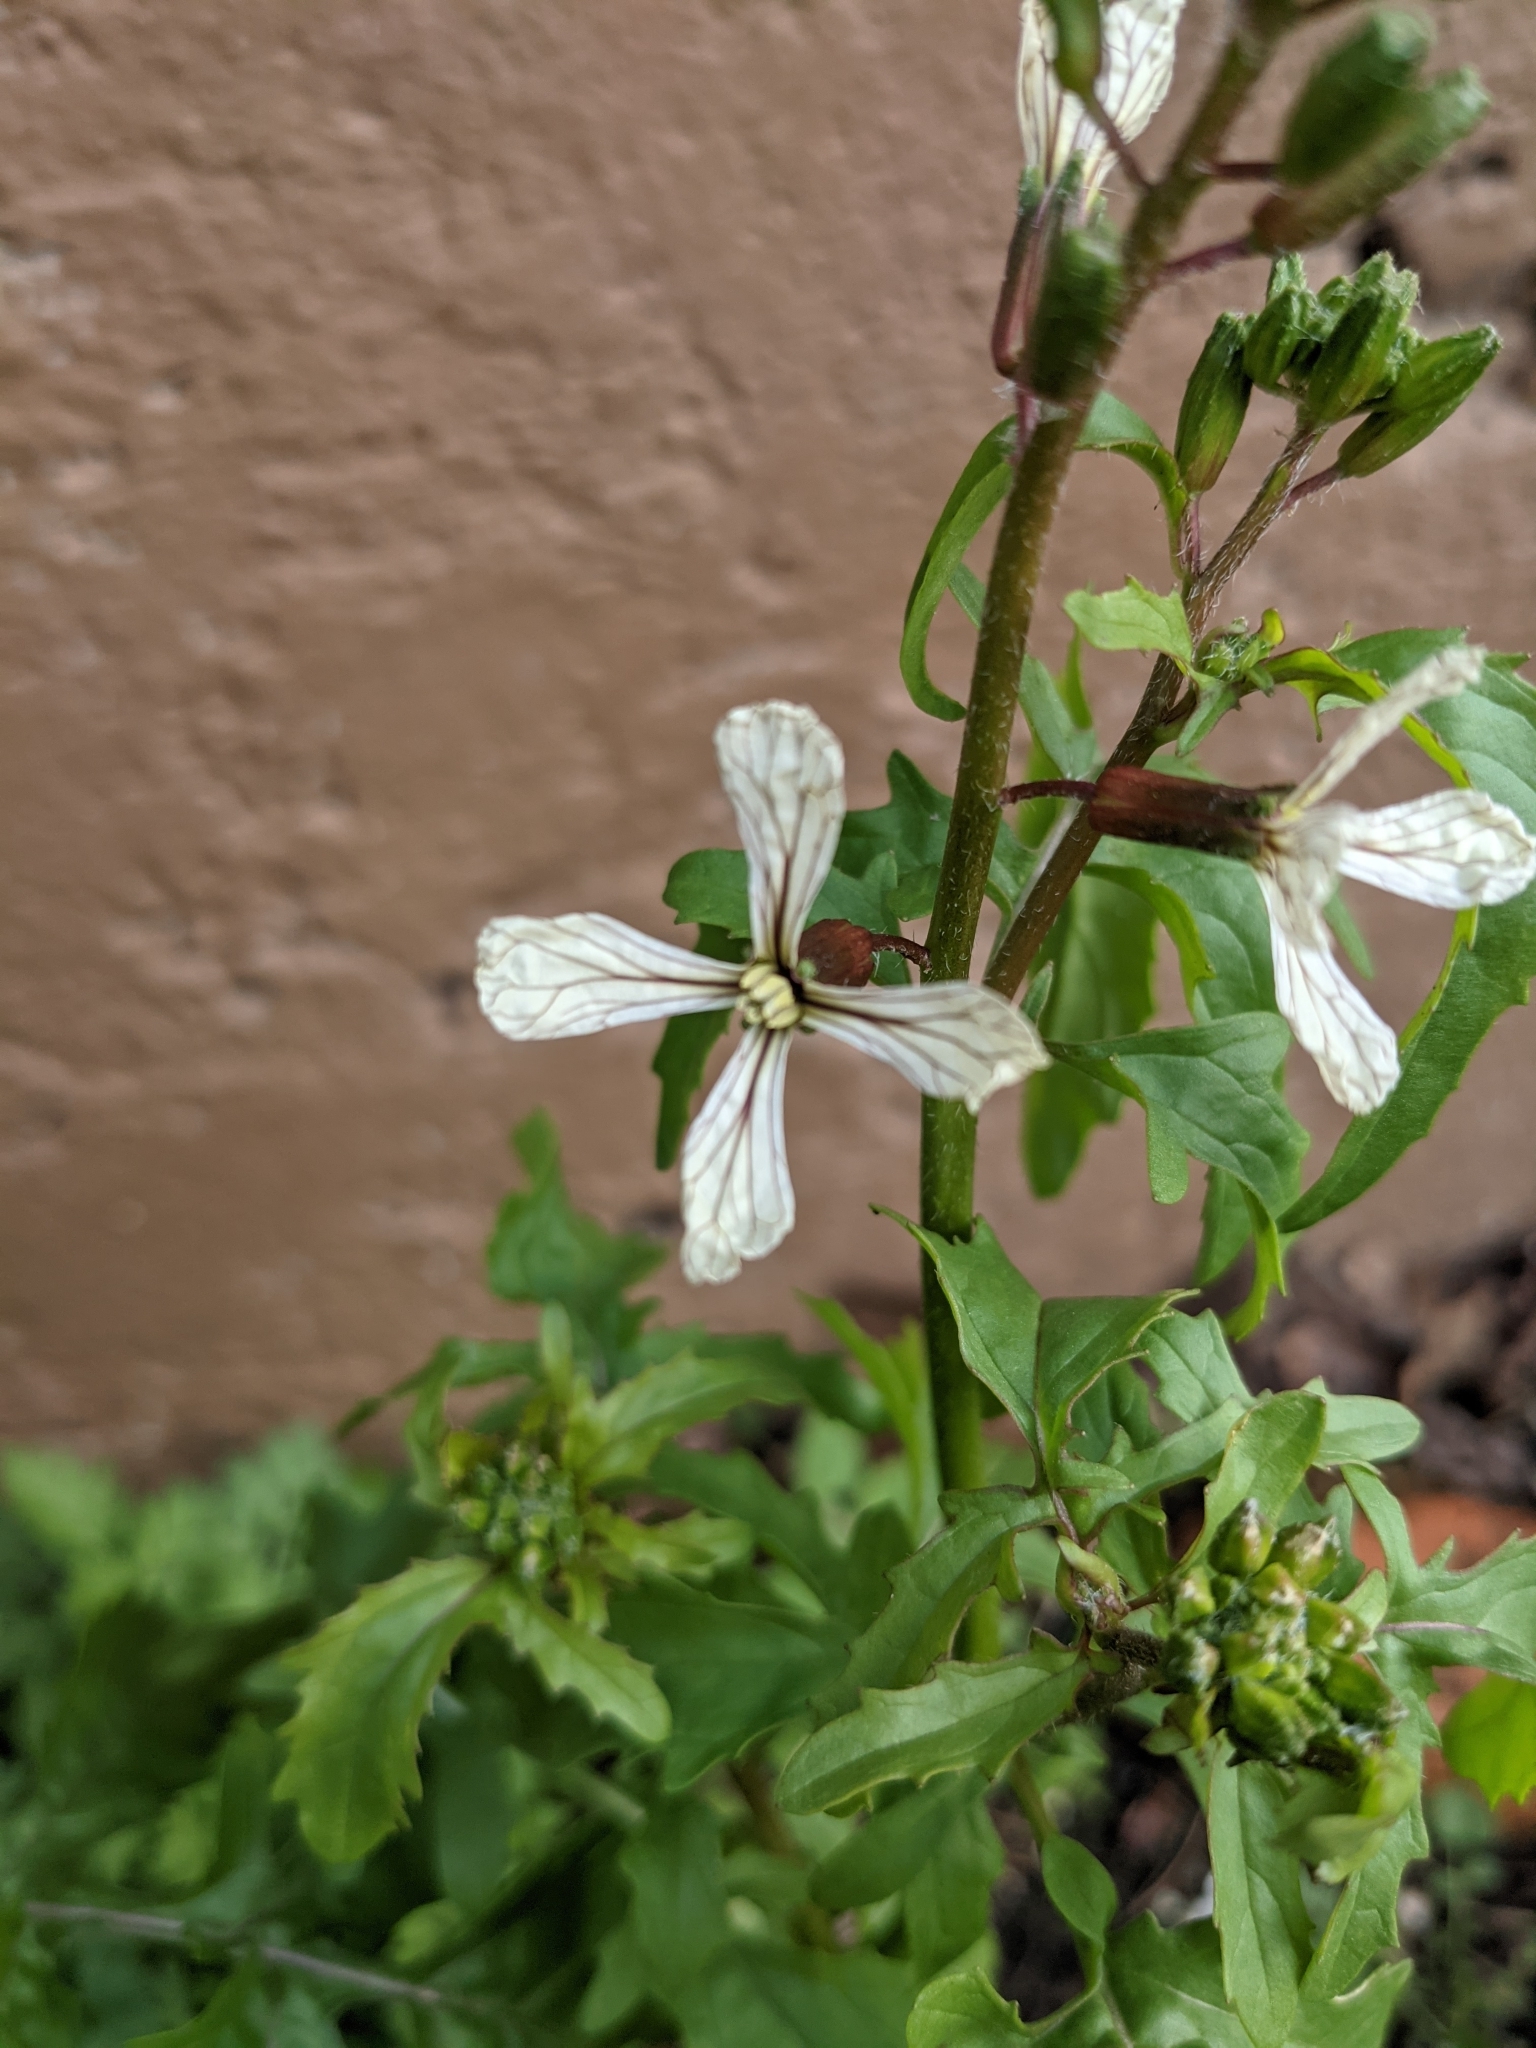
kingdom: Plantae
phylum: Tracheophyta
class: Magnoliopsida
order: Brassicales
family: Brassicaceae
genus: Eruca
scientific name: Eruca vesicaria
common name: Garden rocket
